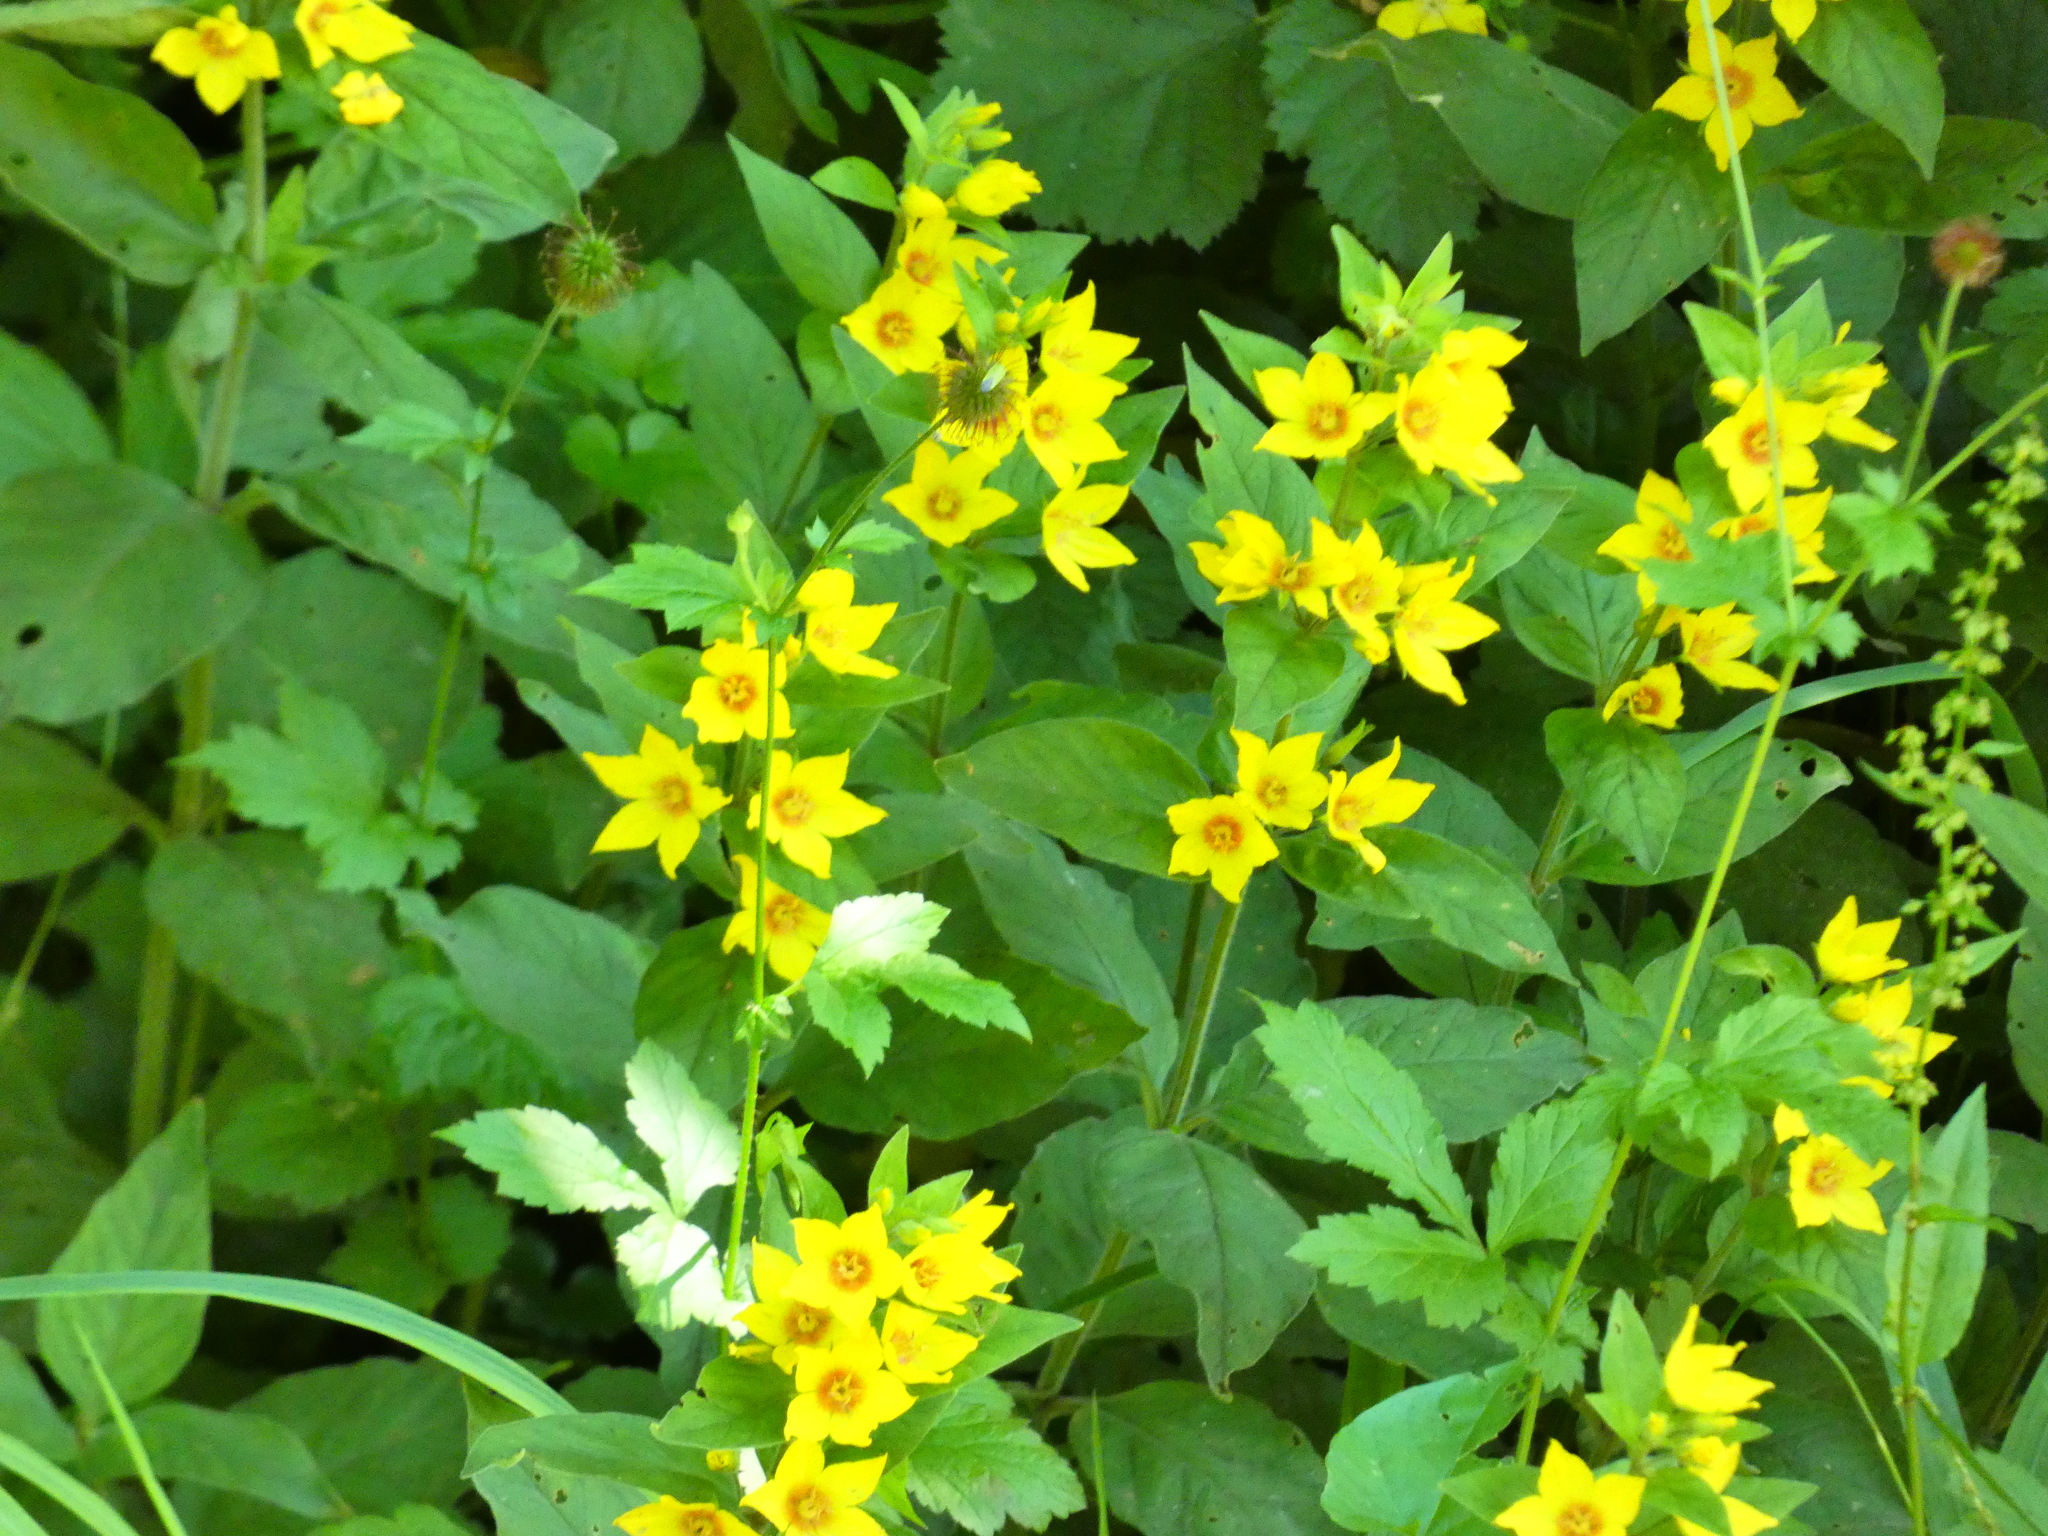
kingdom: Plantae
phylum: Tracheophyta
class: Magnoliopsida
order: Ericales
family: Primulaceae
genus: Lysimachia
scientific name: Lysimachia punctata
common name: Dotted loosestrife
